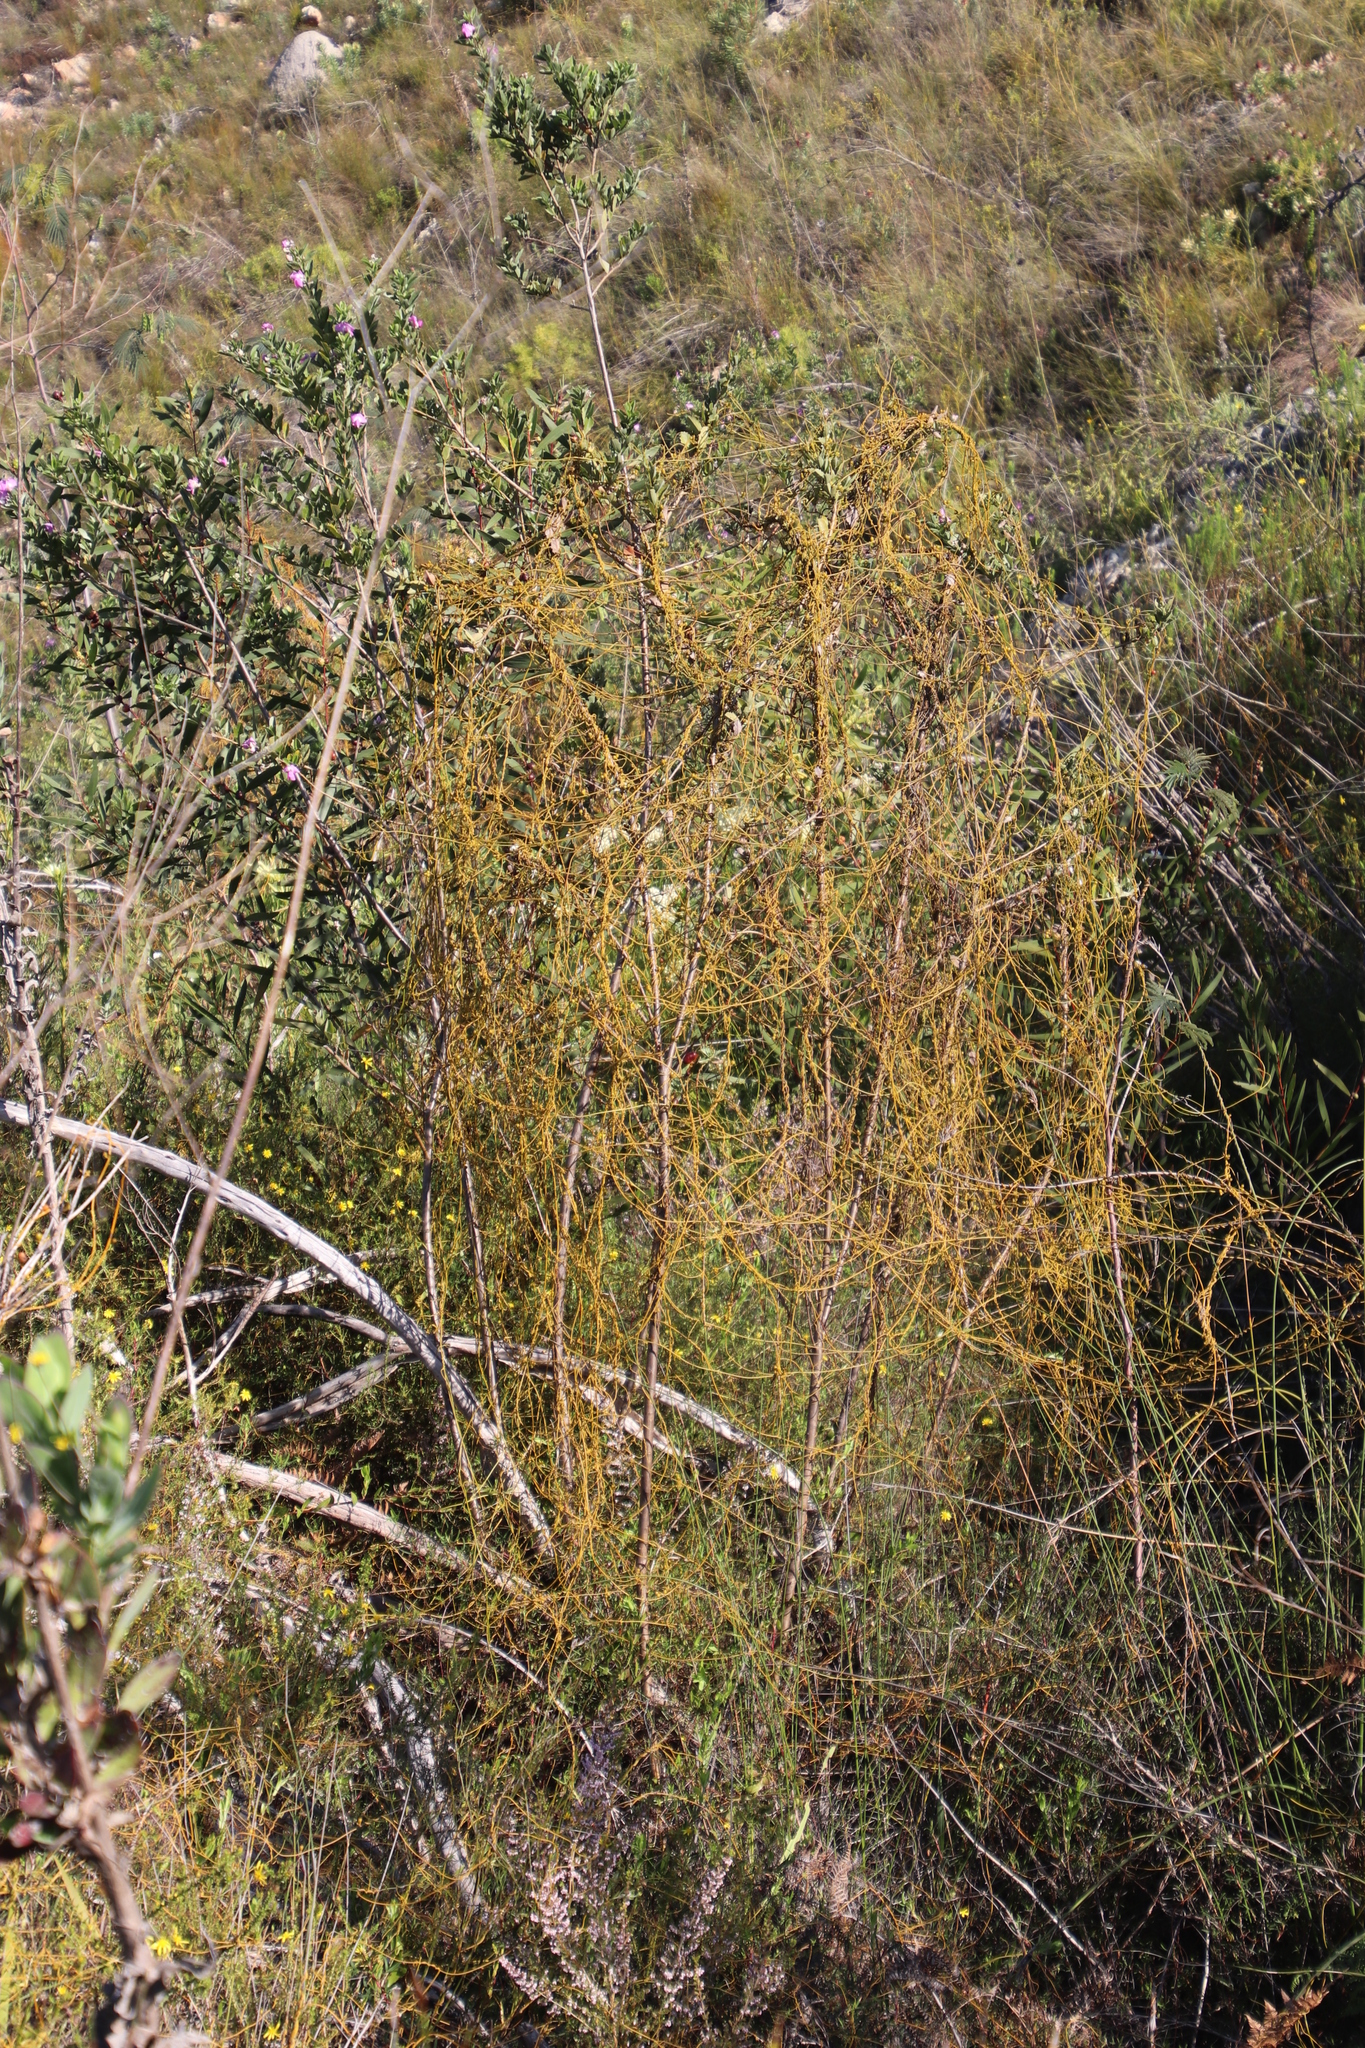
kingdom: Plantae
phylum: Tracheophyta
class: Magnoliopsida
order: Laurales
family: Lauraceae
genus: Cassytha
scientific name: Cassytha ciliolata
